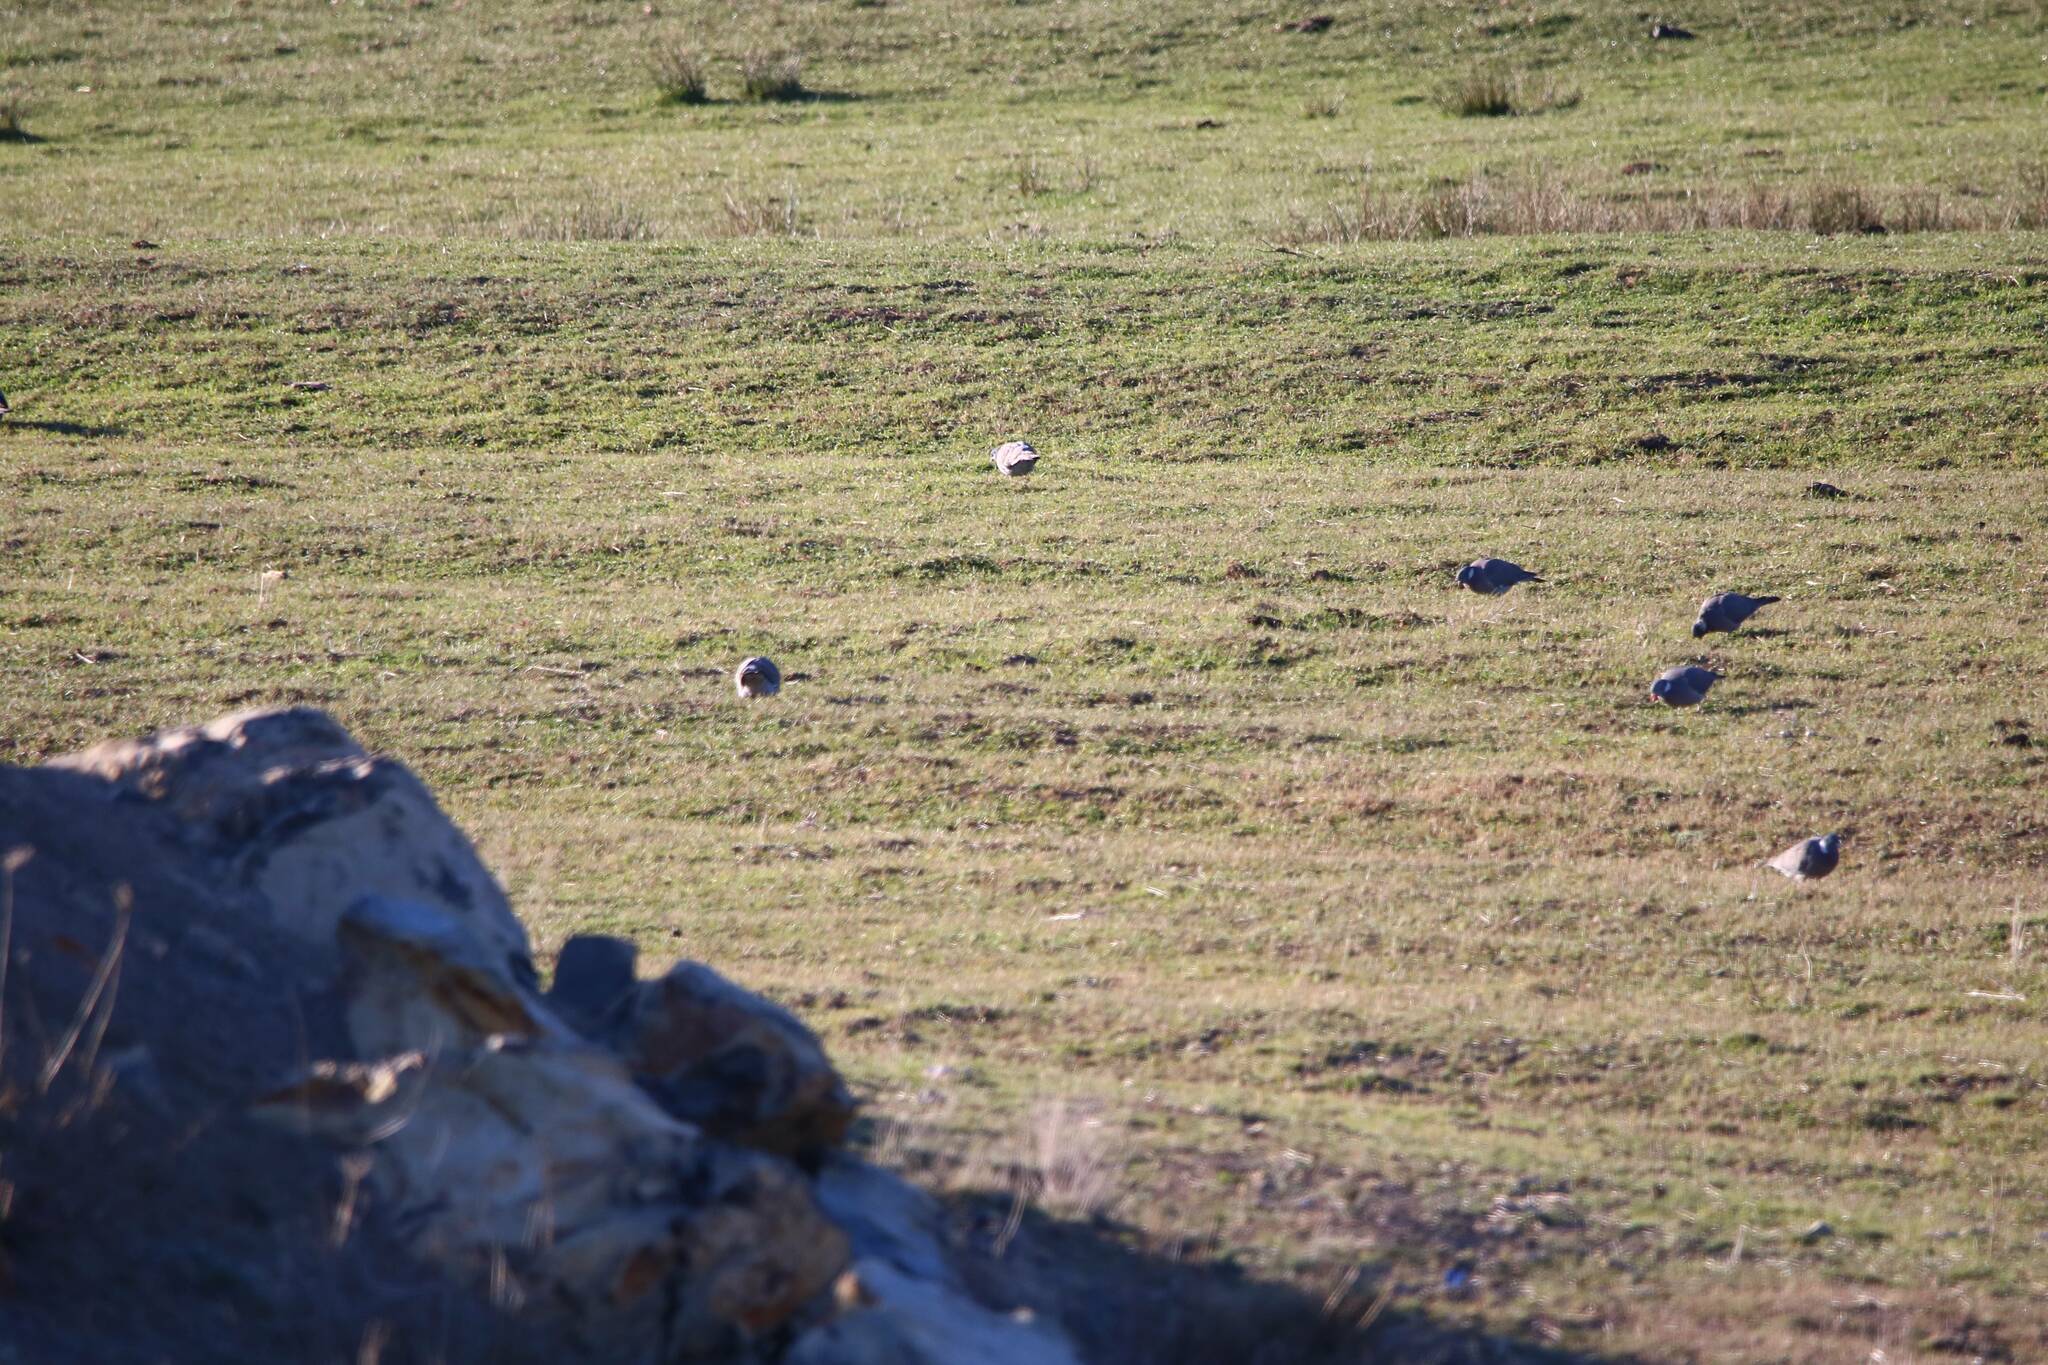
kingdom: Animalia
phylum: Chordata
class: Aves
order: Passeriformes
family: Corvidae
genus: Pica
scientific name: Pica mauritanica
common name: Maghreb magpie
